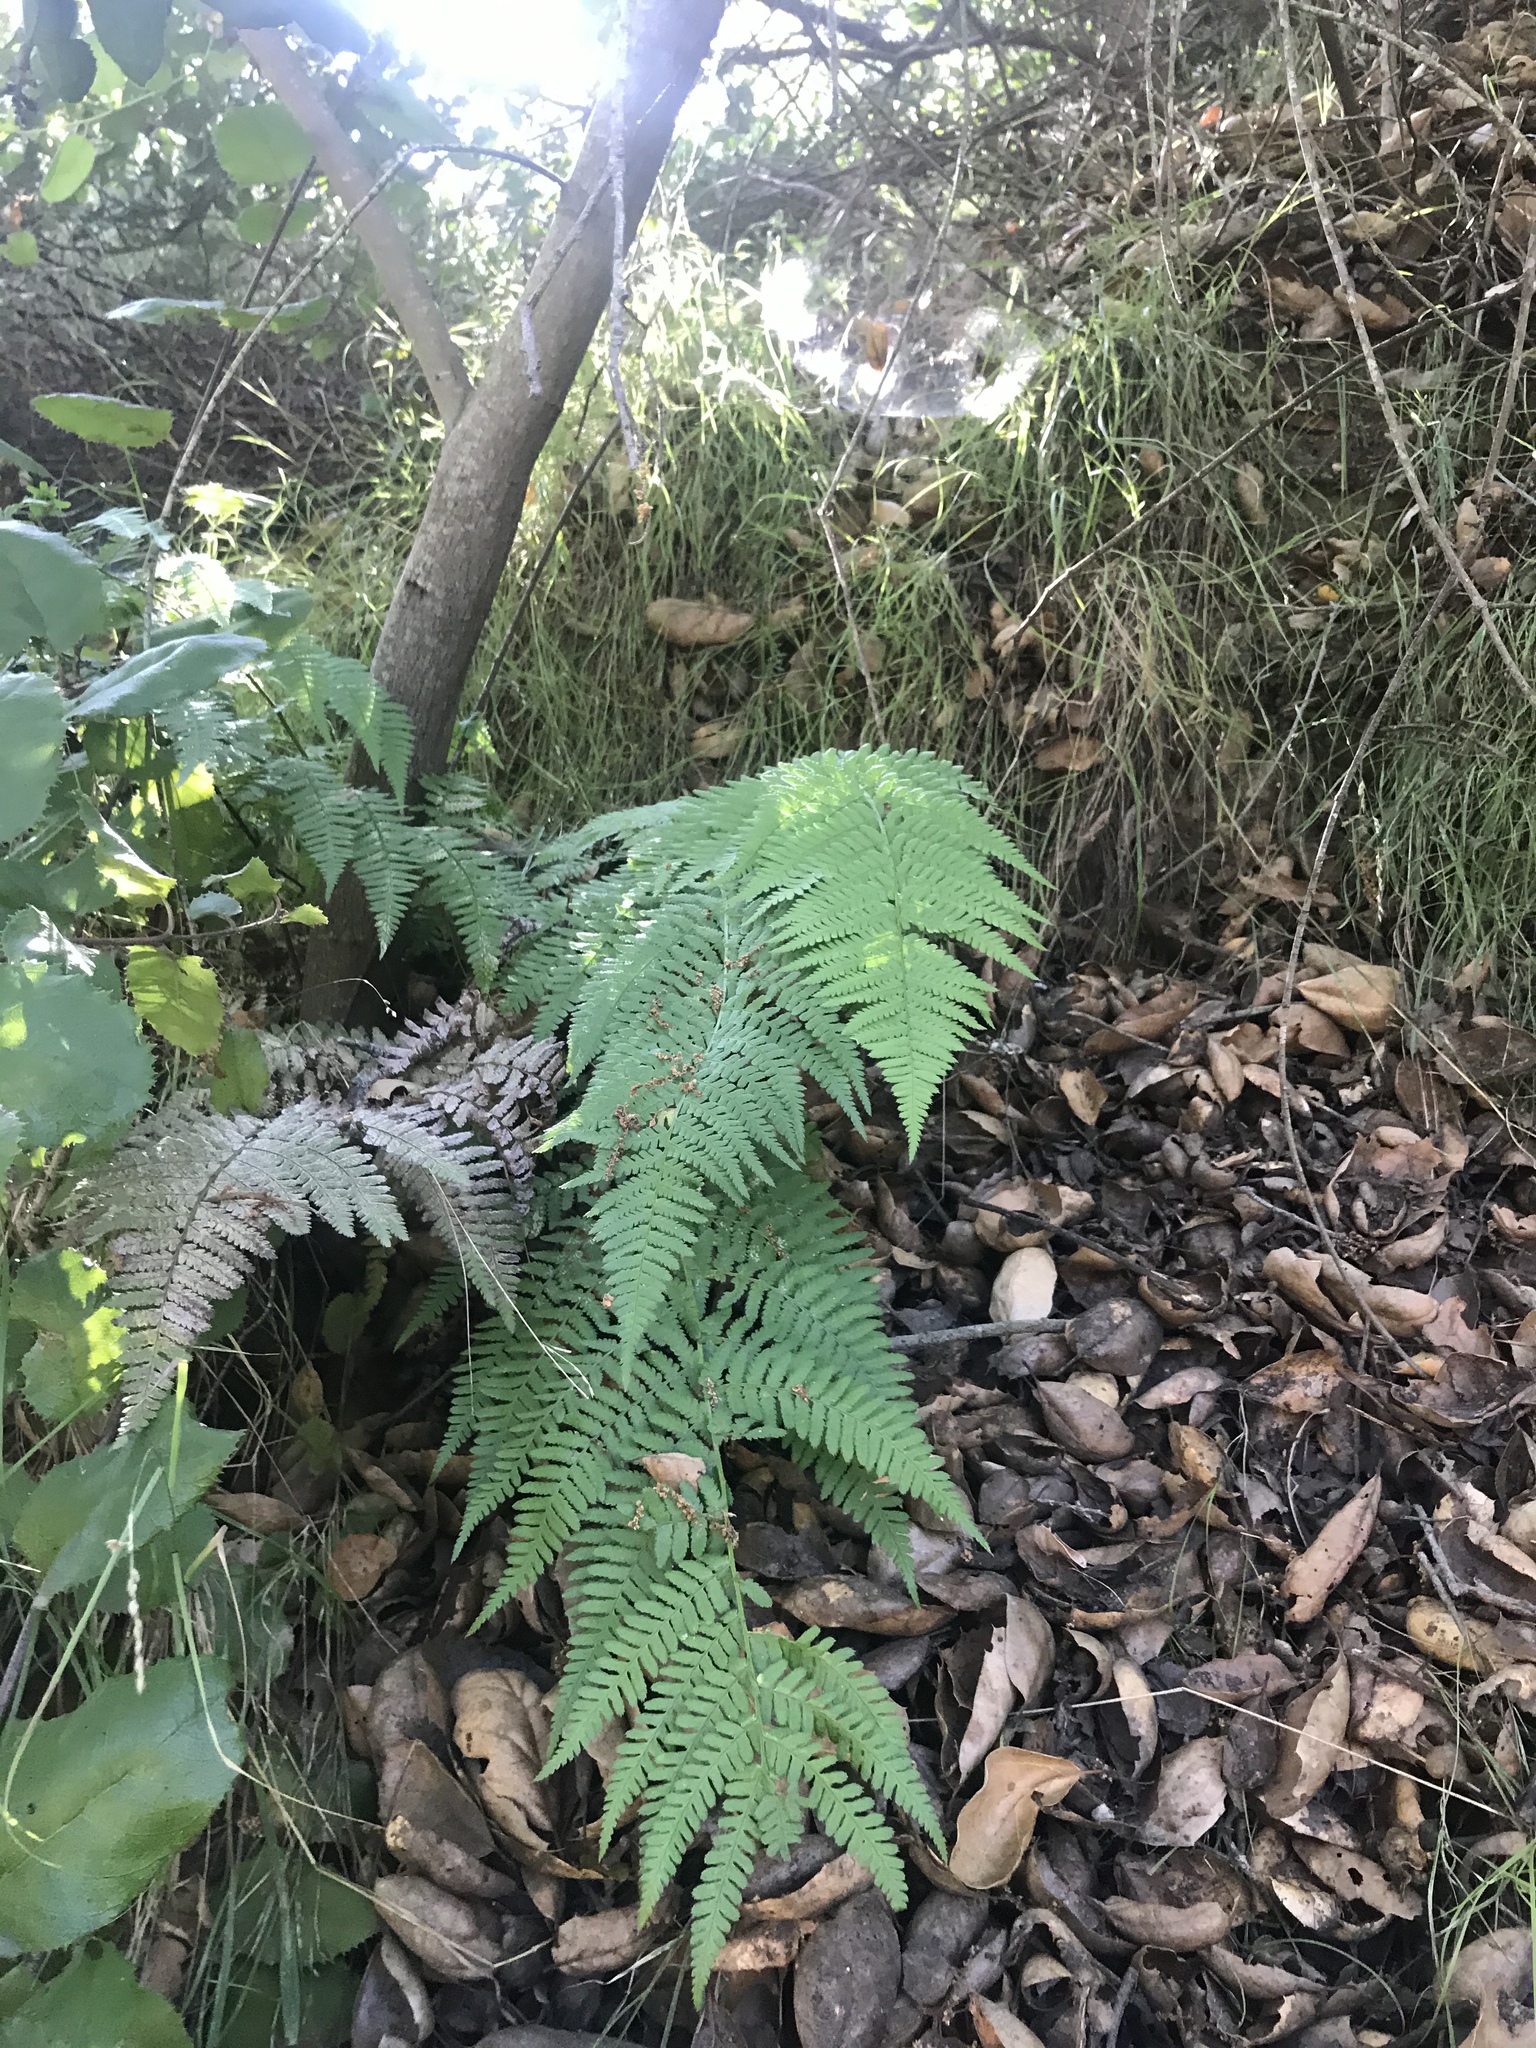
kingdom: Plantae
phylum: Tracheophyta
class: Polypodiopsida
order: Polypodiales
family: Dryopteridaceae
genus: Dryopteris
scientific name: Dryopteris arguta
